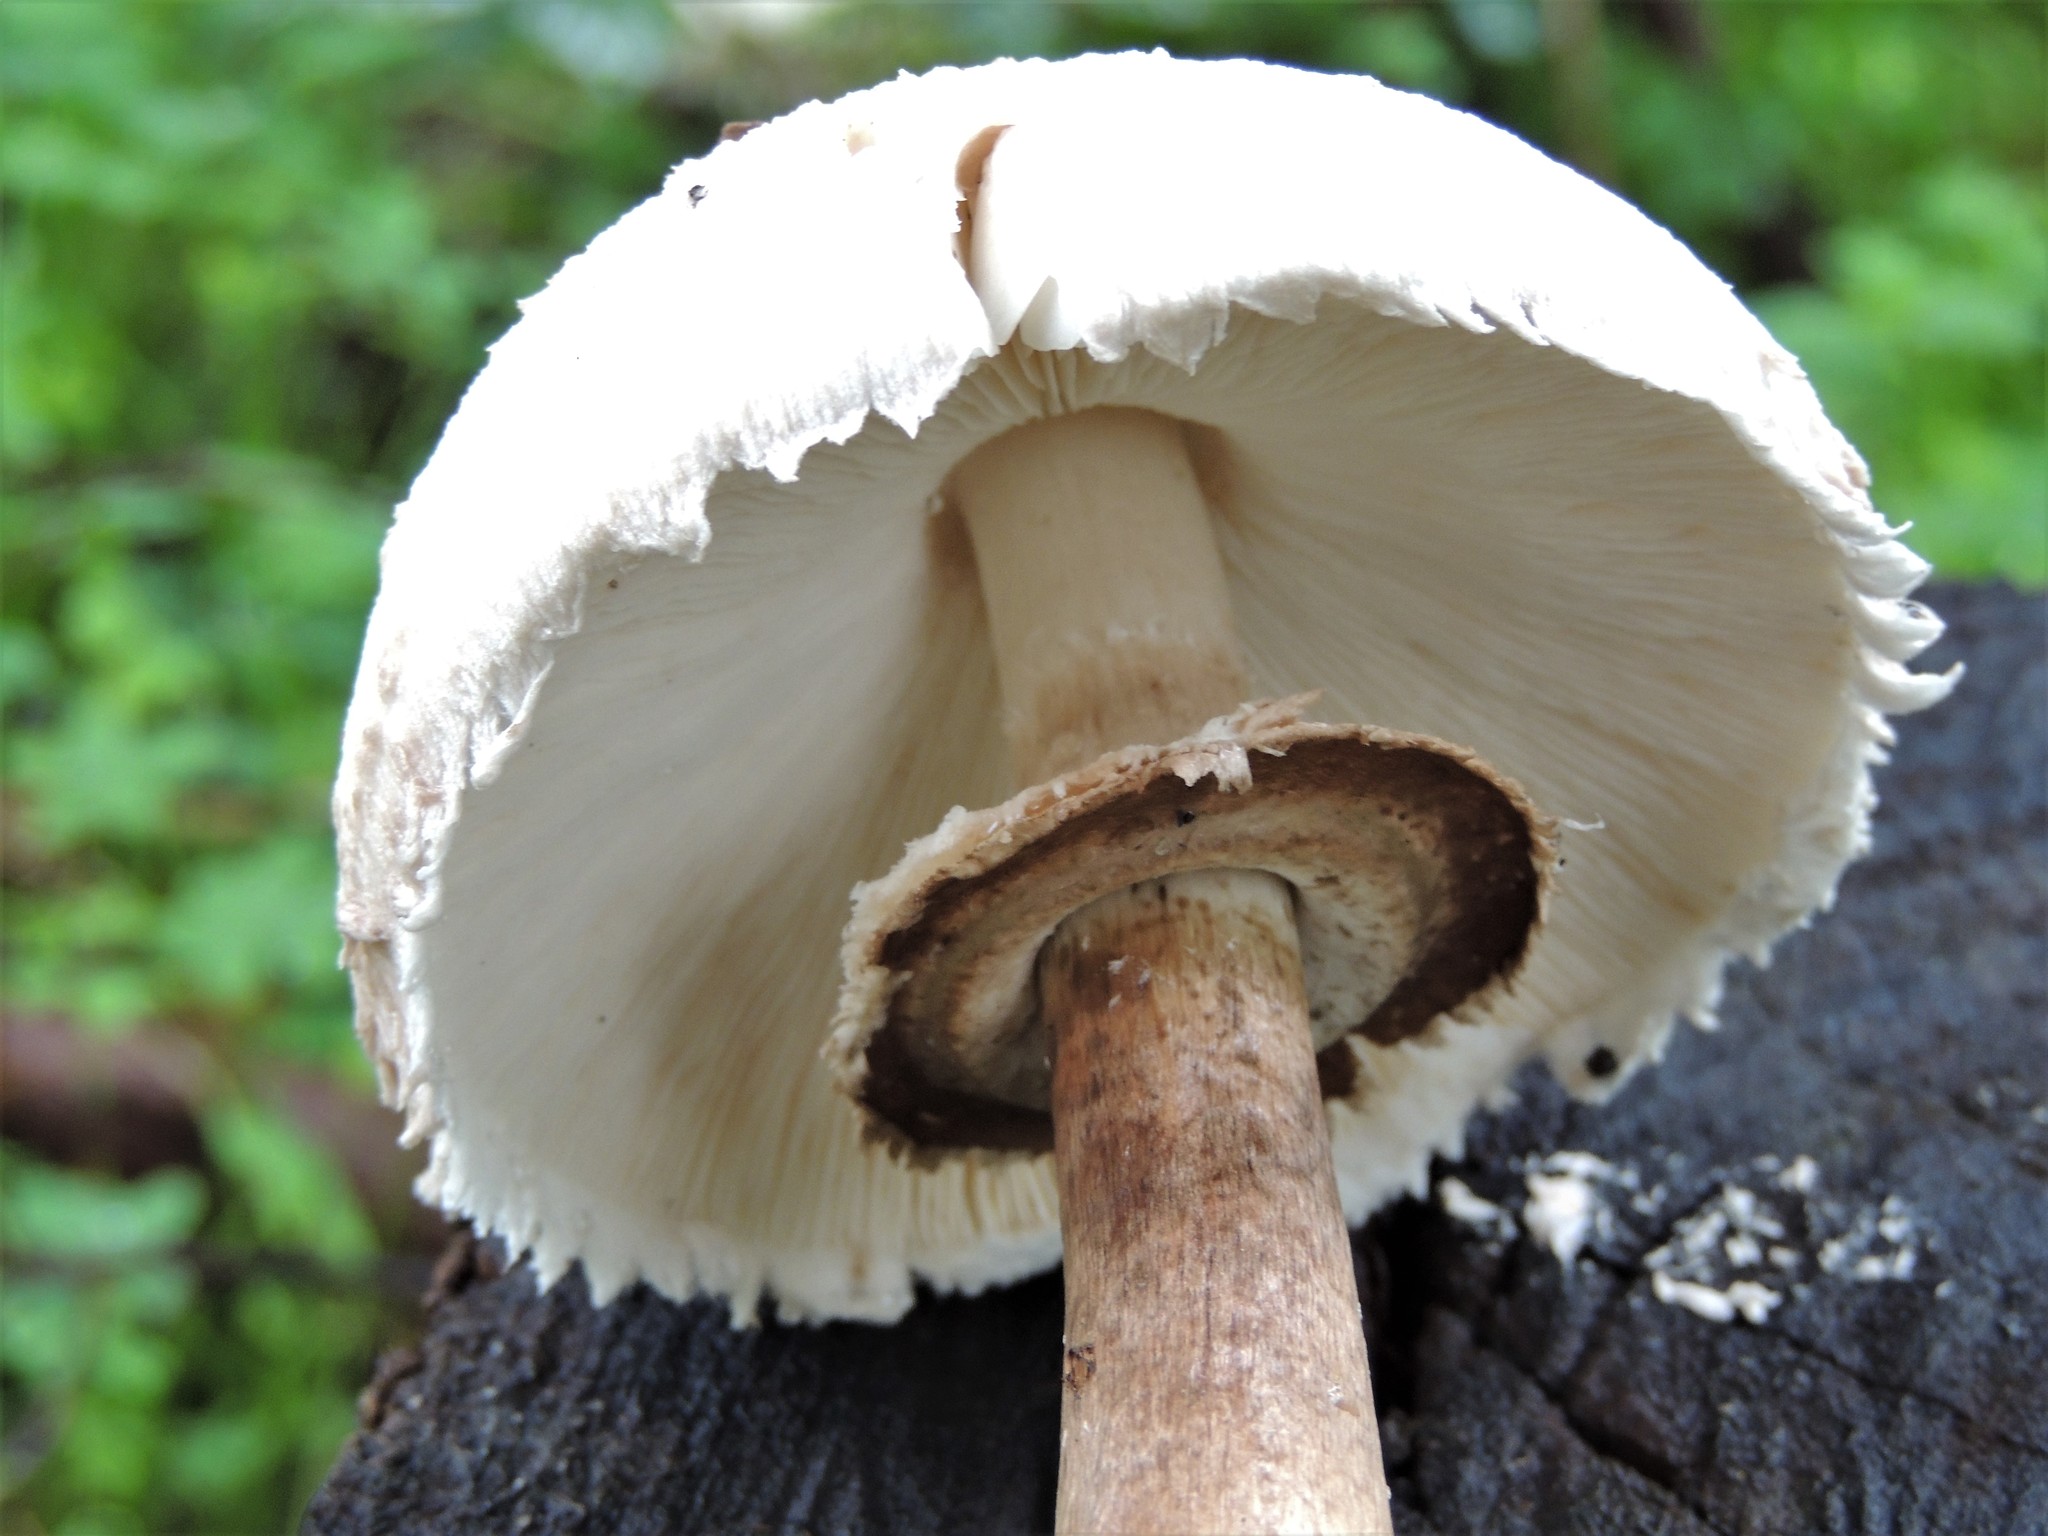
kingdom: Fungi
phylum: Basidiomycota
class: Agaricomycetes
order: Agaricales
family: Agaricaceae
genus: Chlorophyllum
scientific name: Chlorophyllum rhacodes
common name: Shaggy parasol
